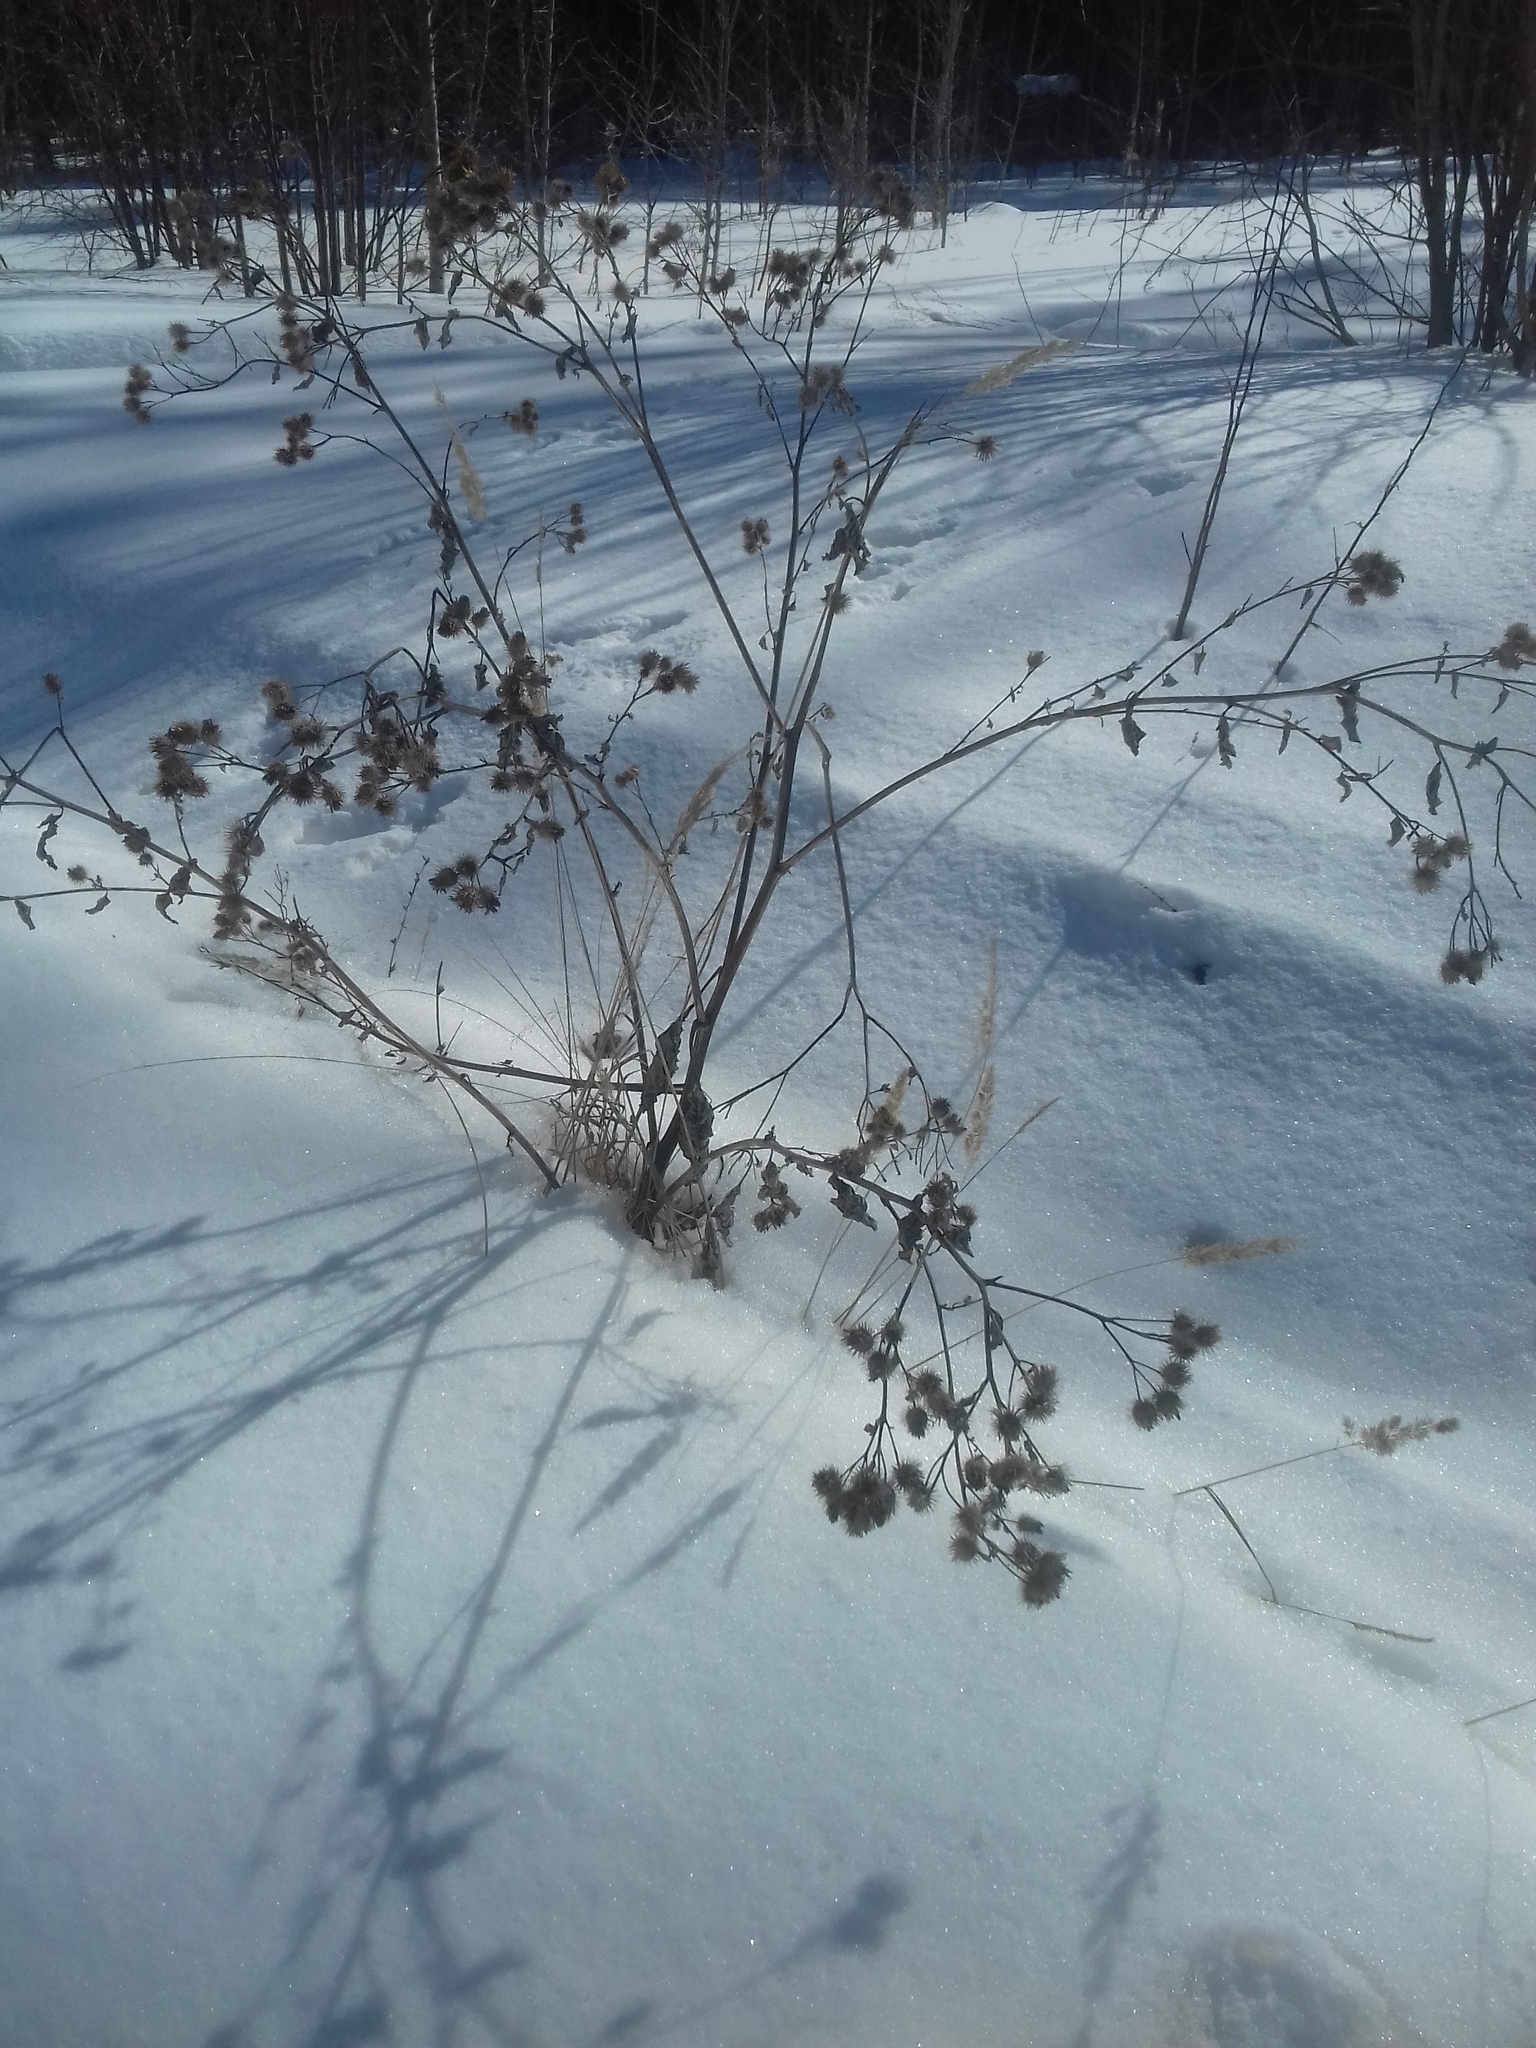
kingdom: Plantae
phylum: Tracheophyta
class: Magnoliopsida
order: Asterales
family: Asteraceae
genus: Arctium
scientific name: Arctium tomentosum
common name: Woolly burdock
